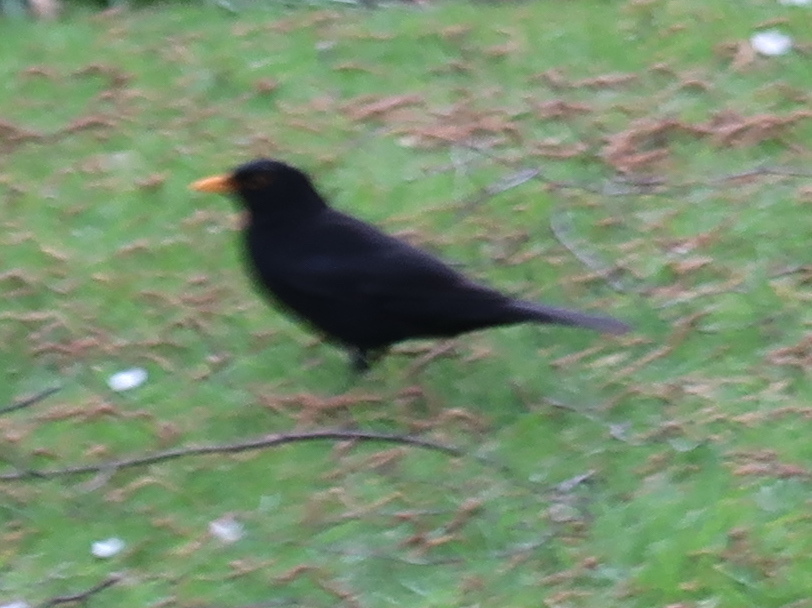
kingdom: Animalia
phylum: Chordata
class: Aves
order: Passeriformes
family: Turdidae
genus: Turdus
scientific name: Turdus merula
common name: Common blackbird
